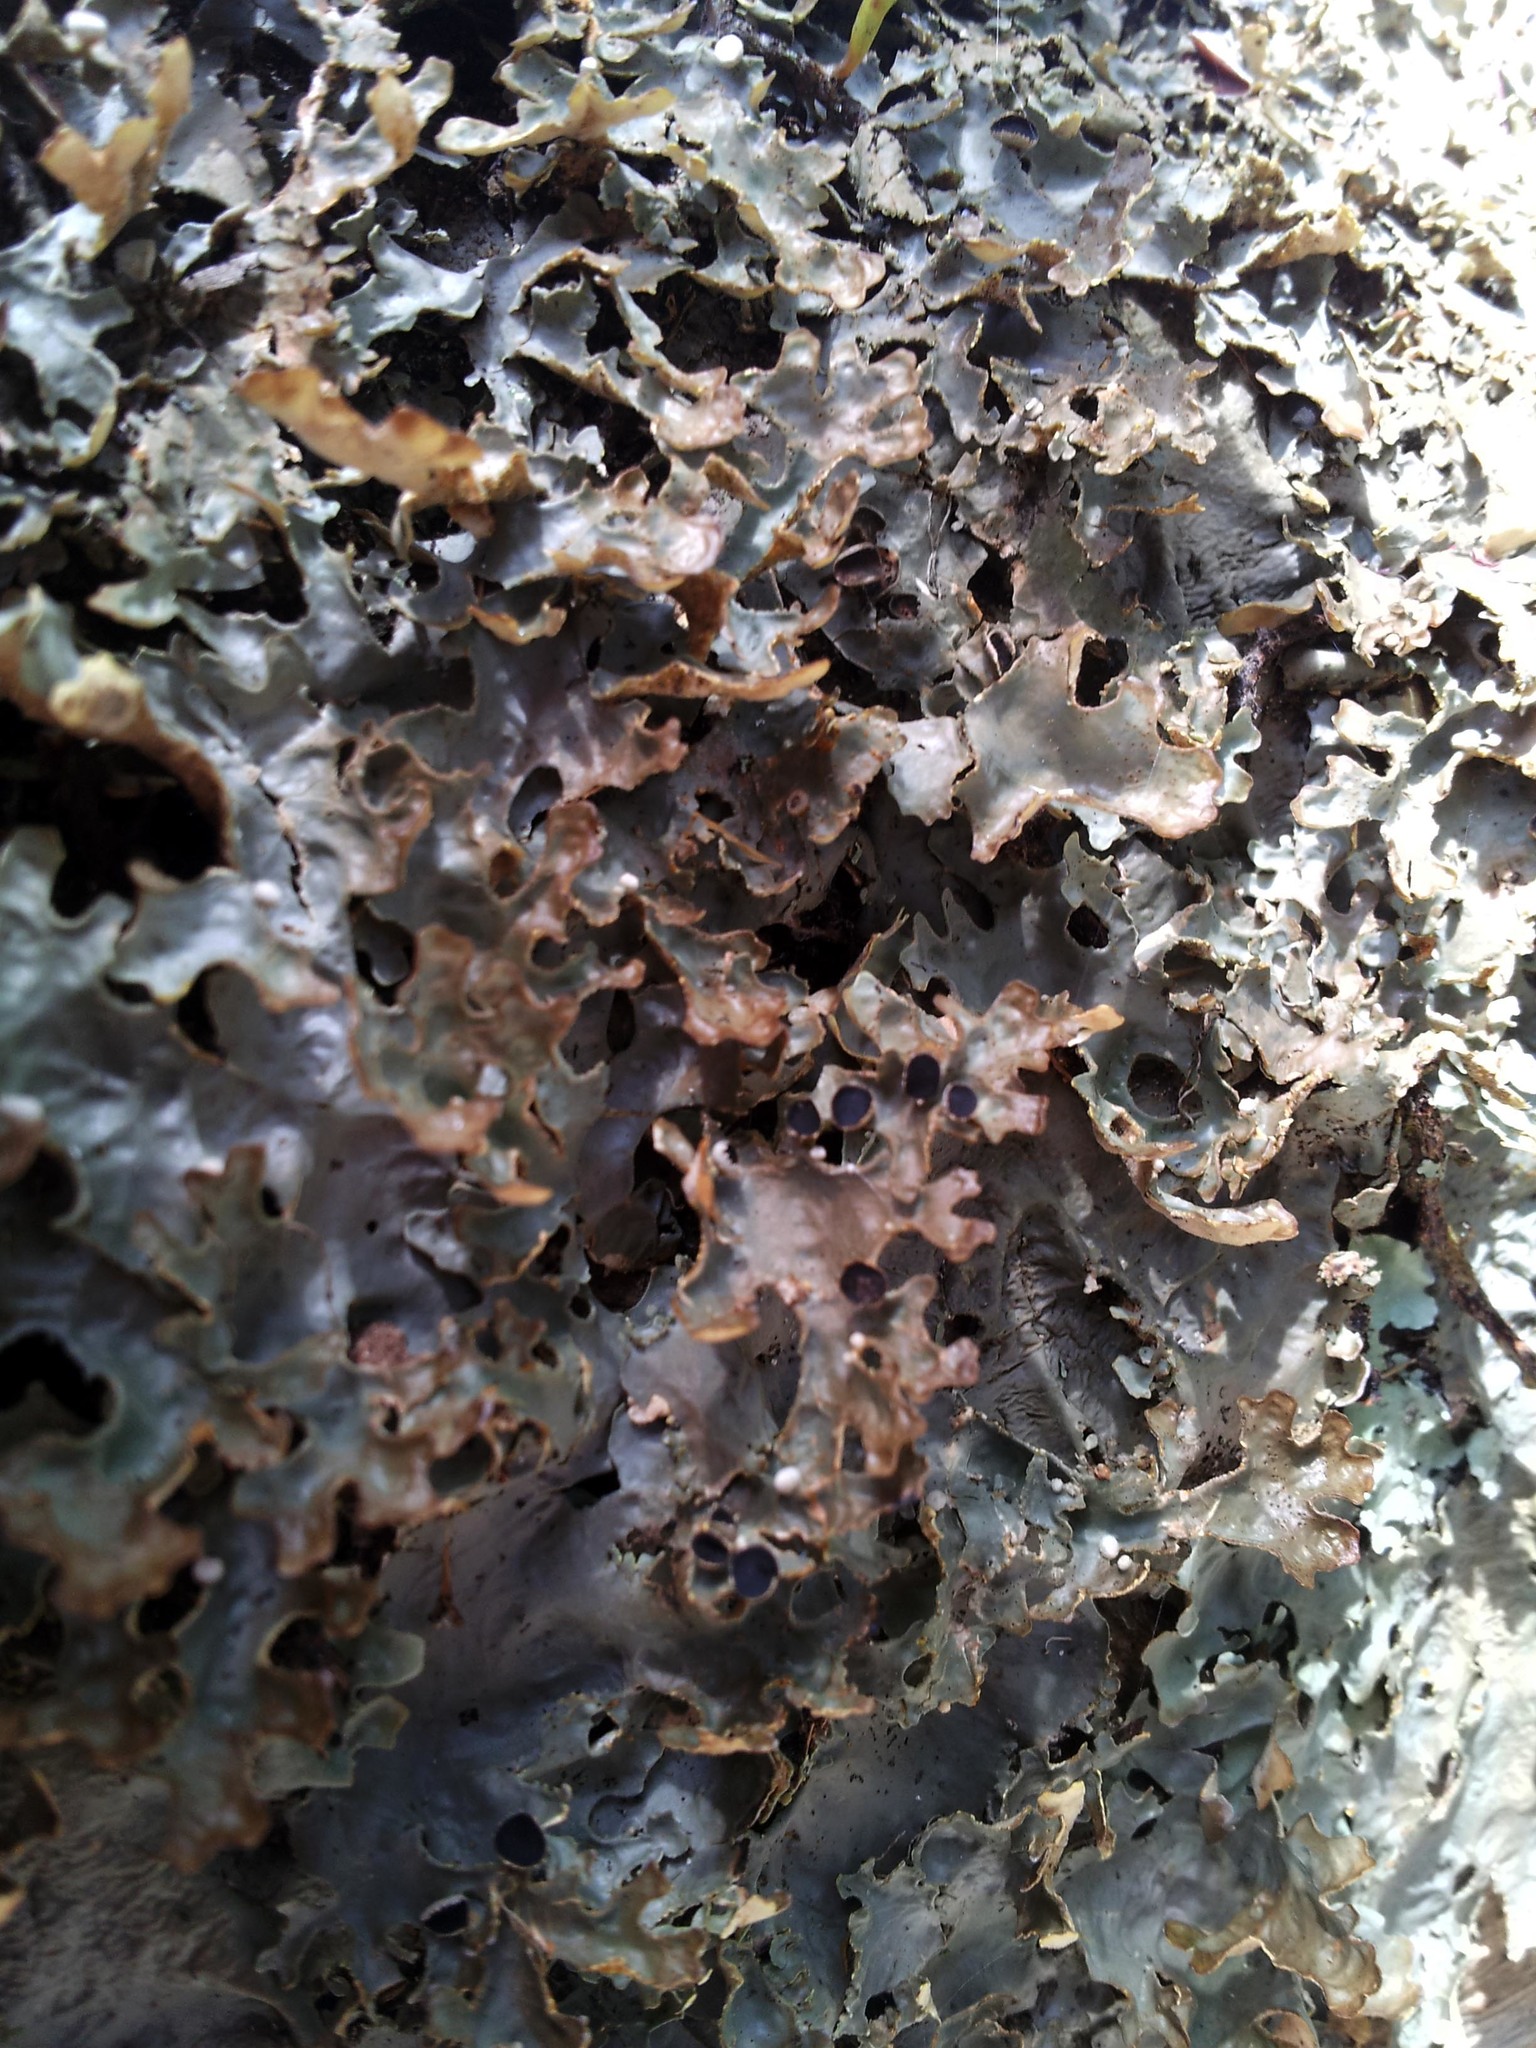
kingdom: Fungi
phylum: Ascomycota
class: Lecanoromycetes
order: Peltigerales
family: Lobariaceae
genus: Pseudocyphellaria
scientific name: Pseudocyphellaria carpoloma
